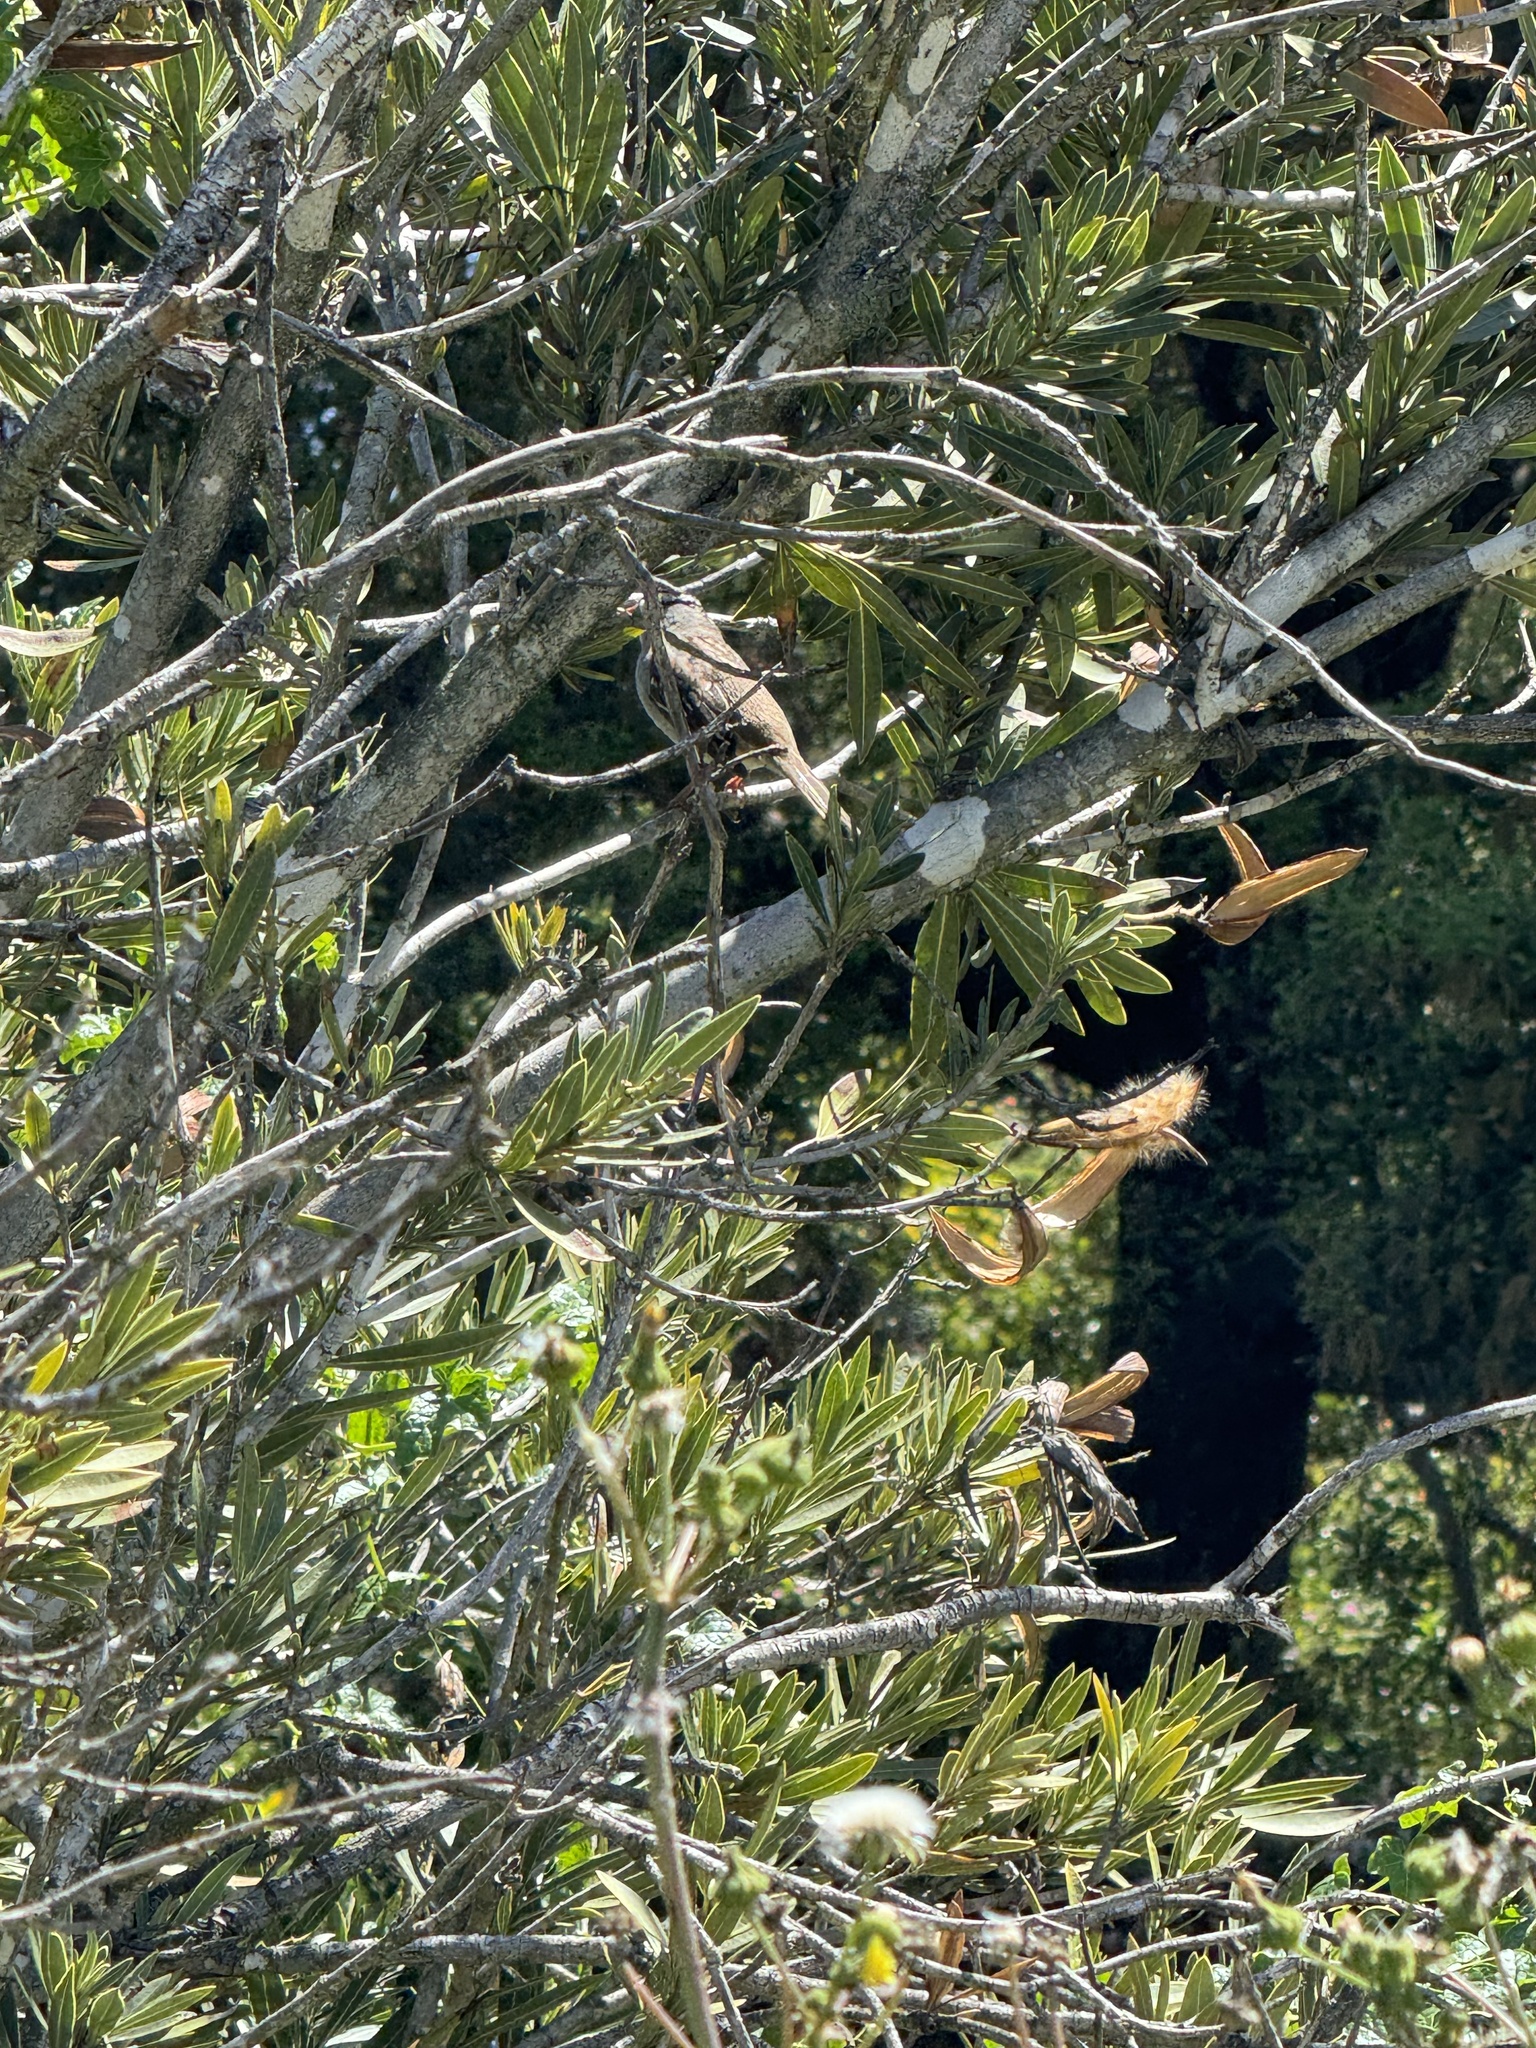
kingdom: Animalia
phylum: Chordata
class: Aves
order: Passeriformes
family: Passerellidae
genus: Zonotrichia
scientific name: Zonotrichia leucophrys
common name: White-crowned sparrow
